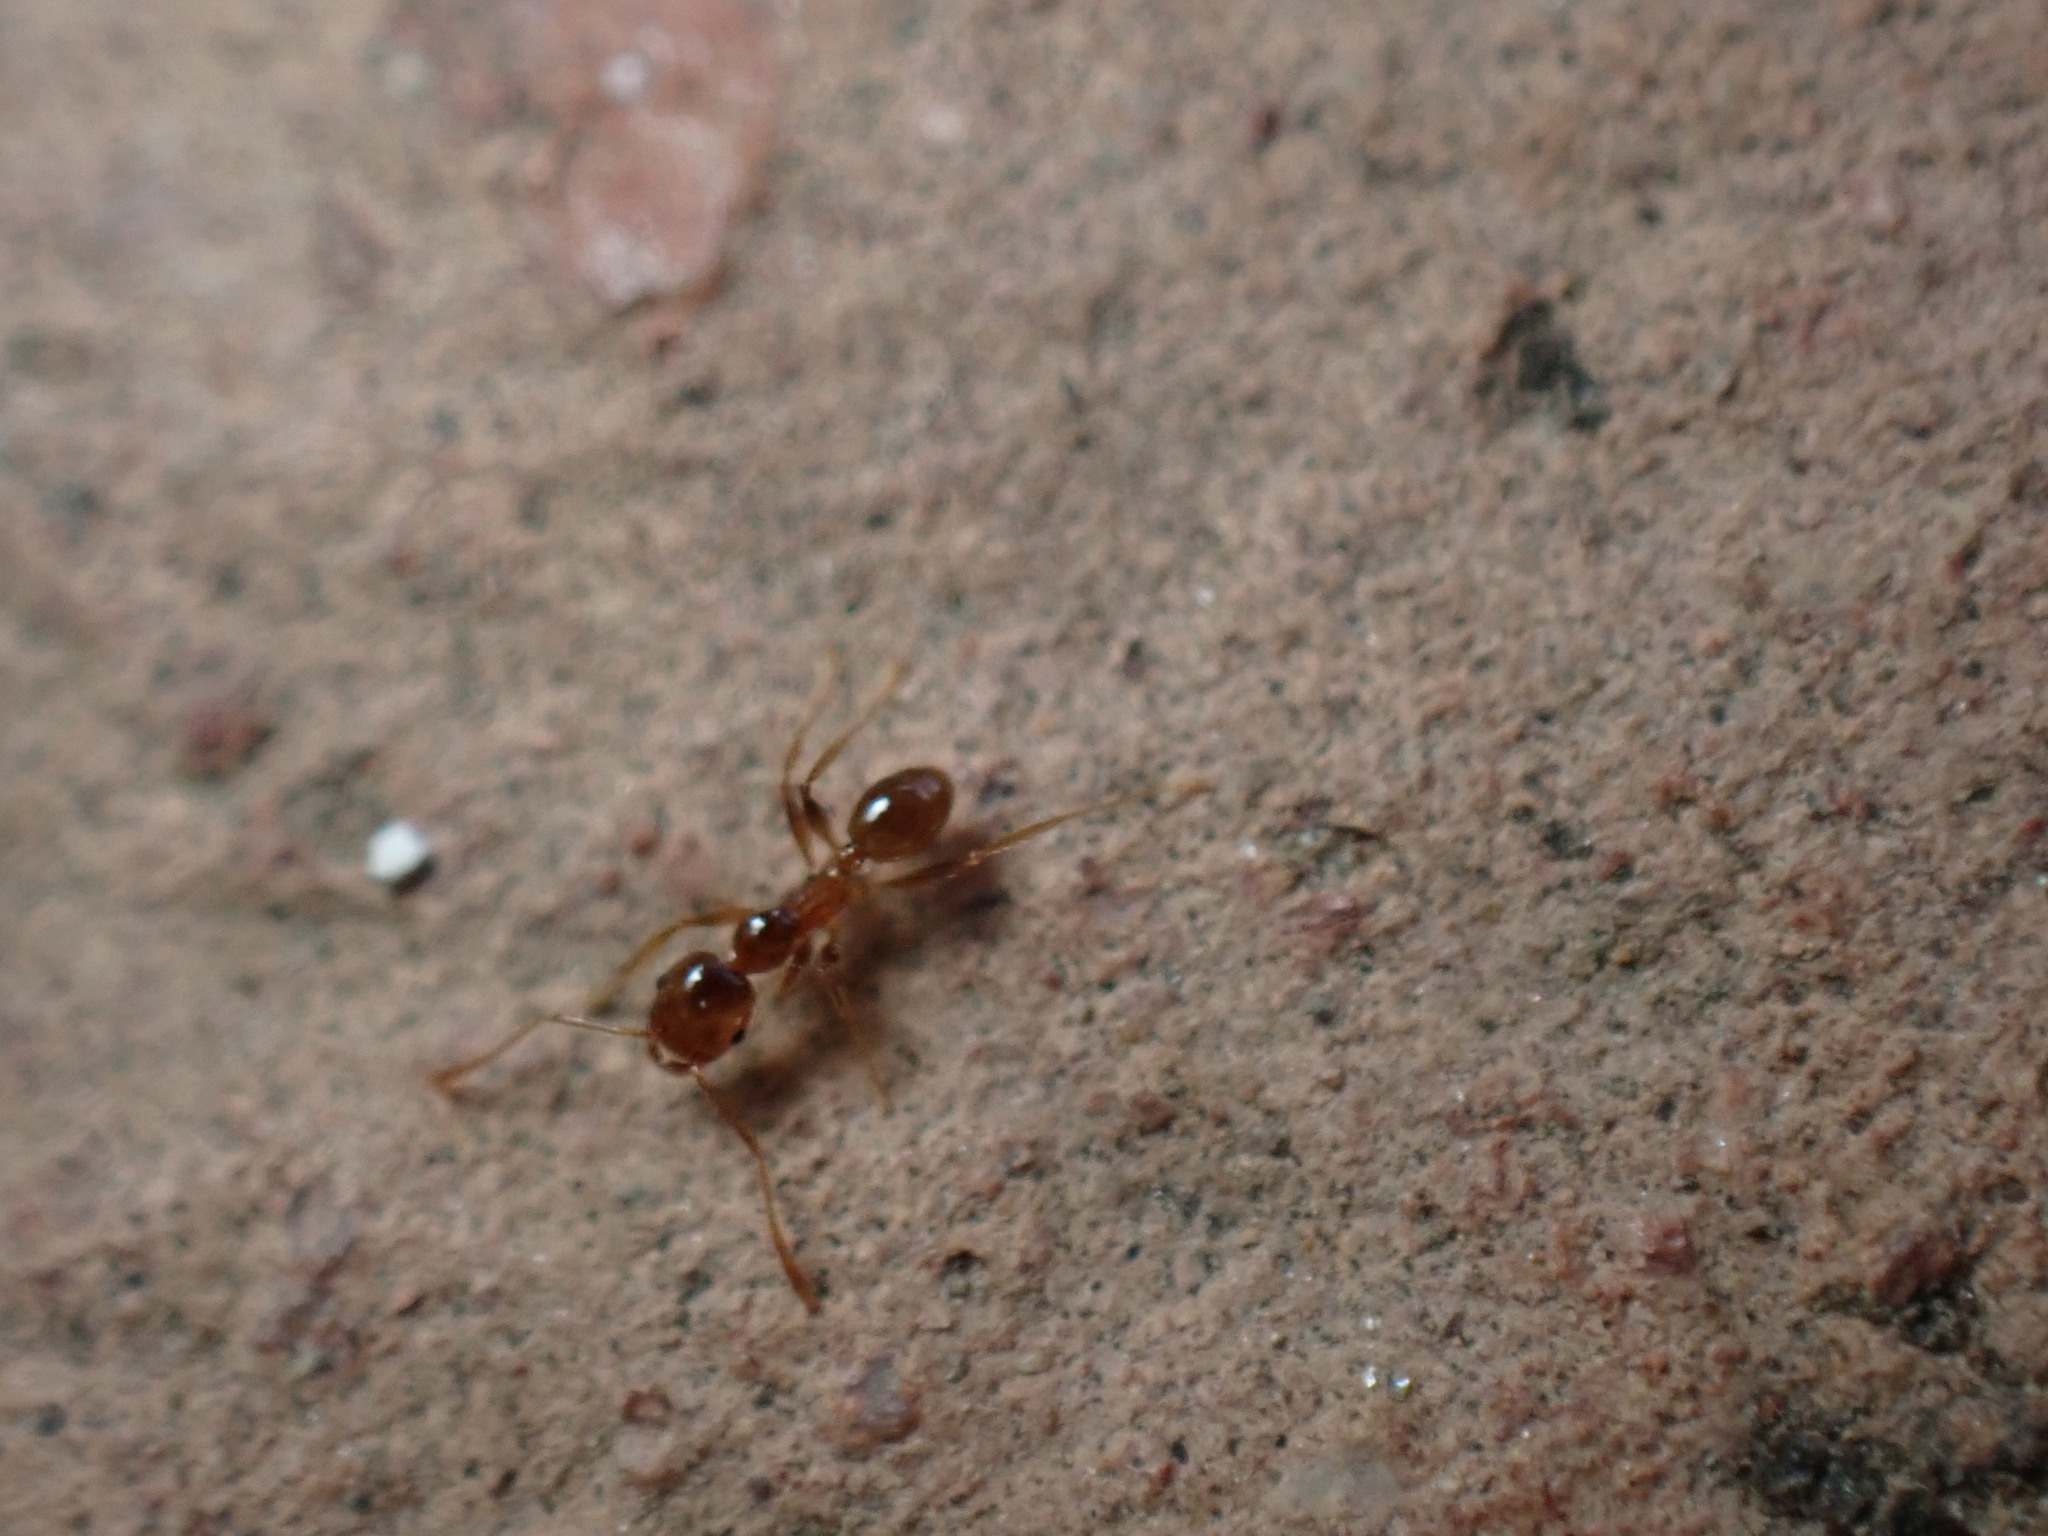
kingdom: Animalia
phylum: Arthropoda
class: Insecta
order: Hymenoptera
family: Formicidae
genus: Pheidole
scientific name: Pheidole pallidula
